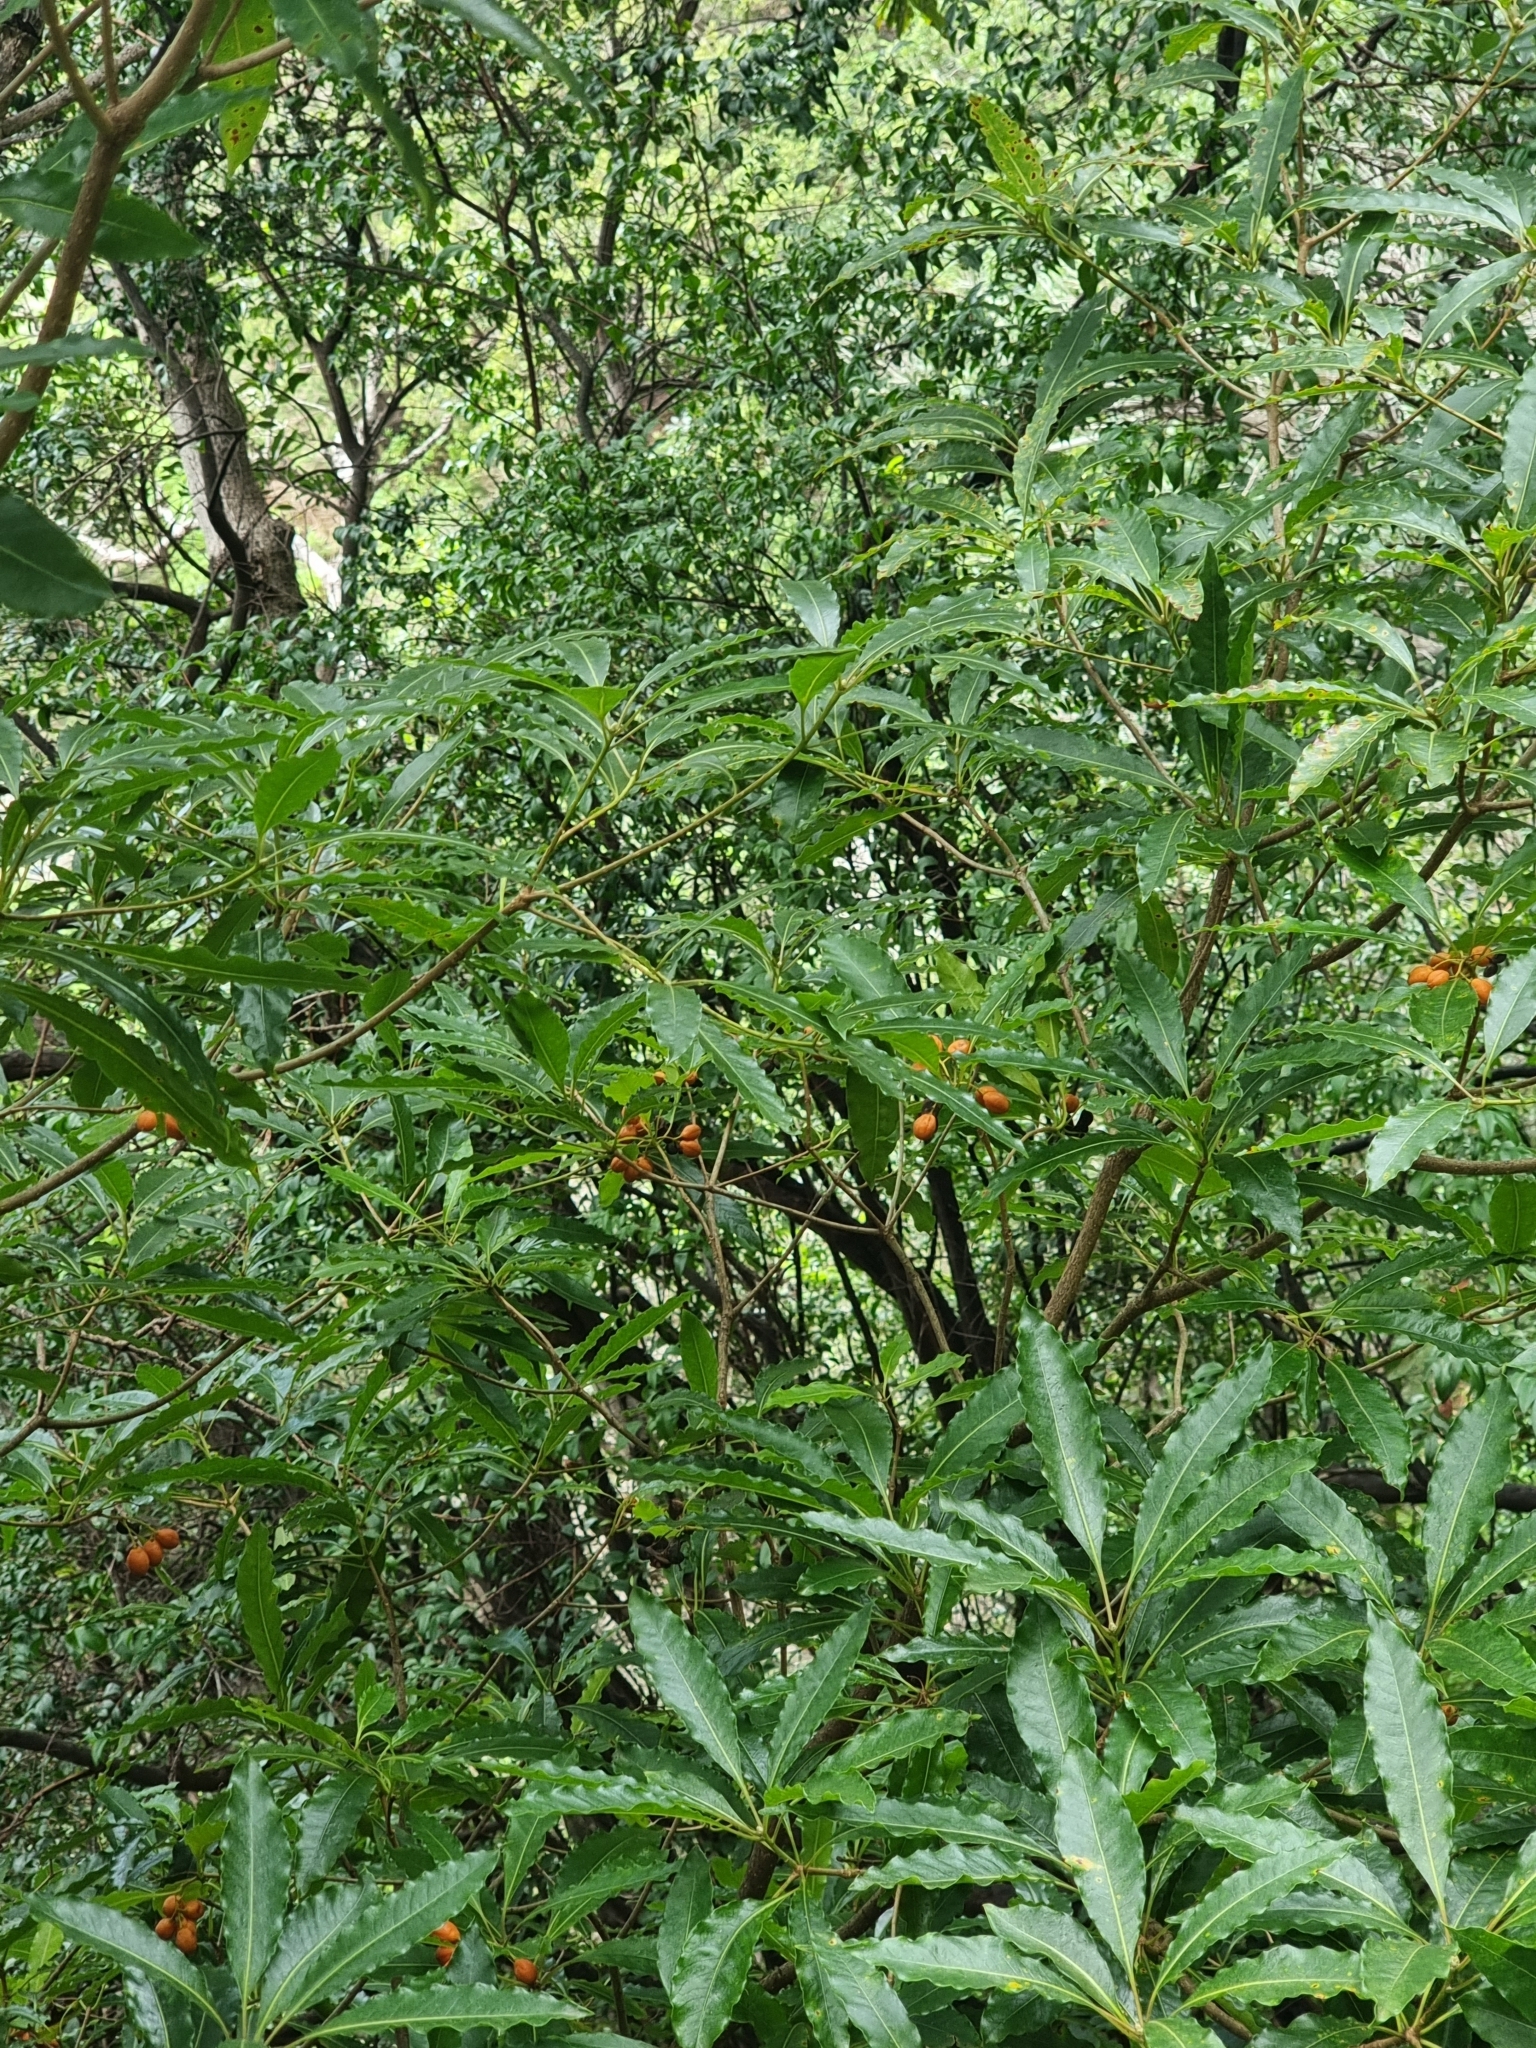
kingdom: Plantae
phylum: Tracheophyta
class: Magnoliopsida
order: Apiales
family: Pittosporaceae
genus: Pittosporum
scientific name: Pittosporum undulatum
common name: Australian cheesewood
